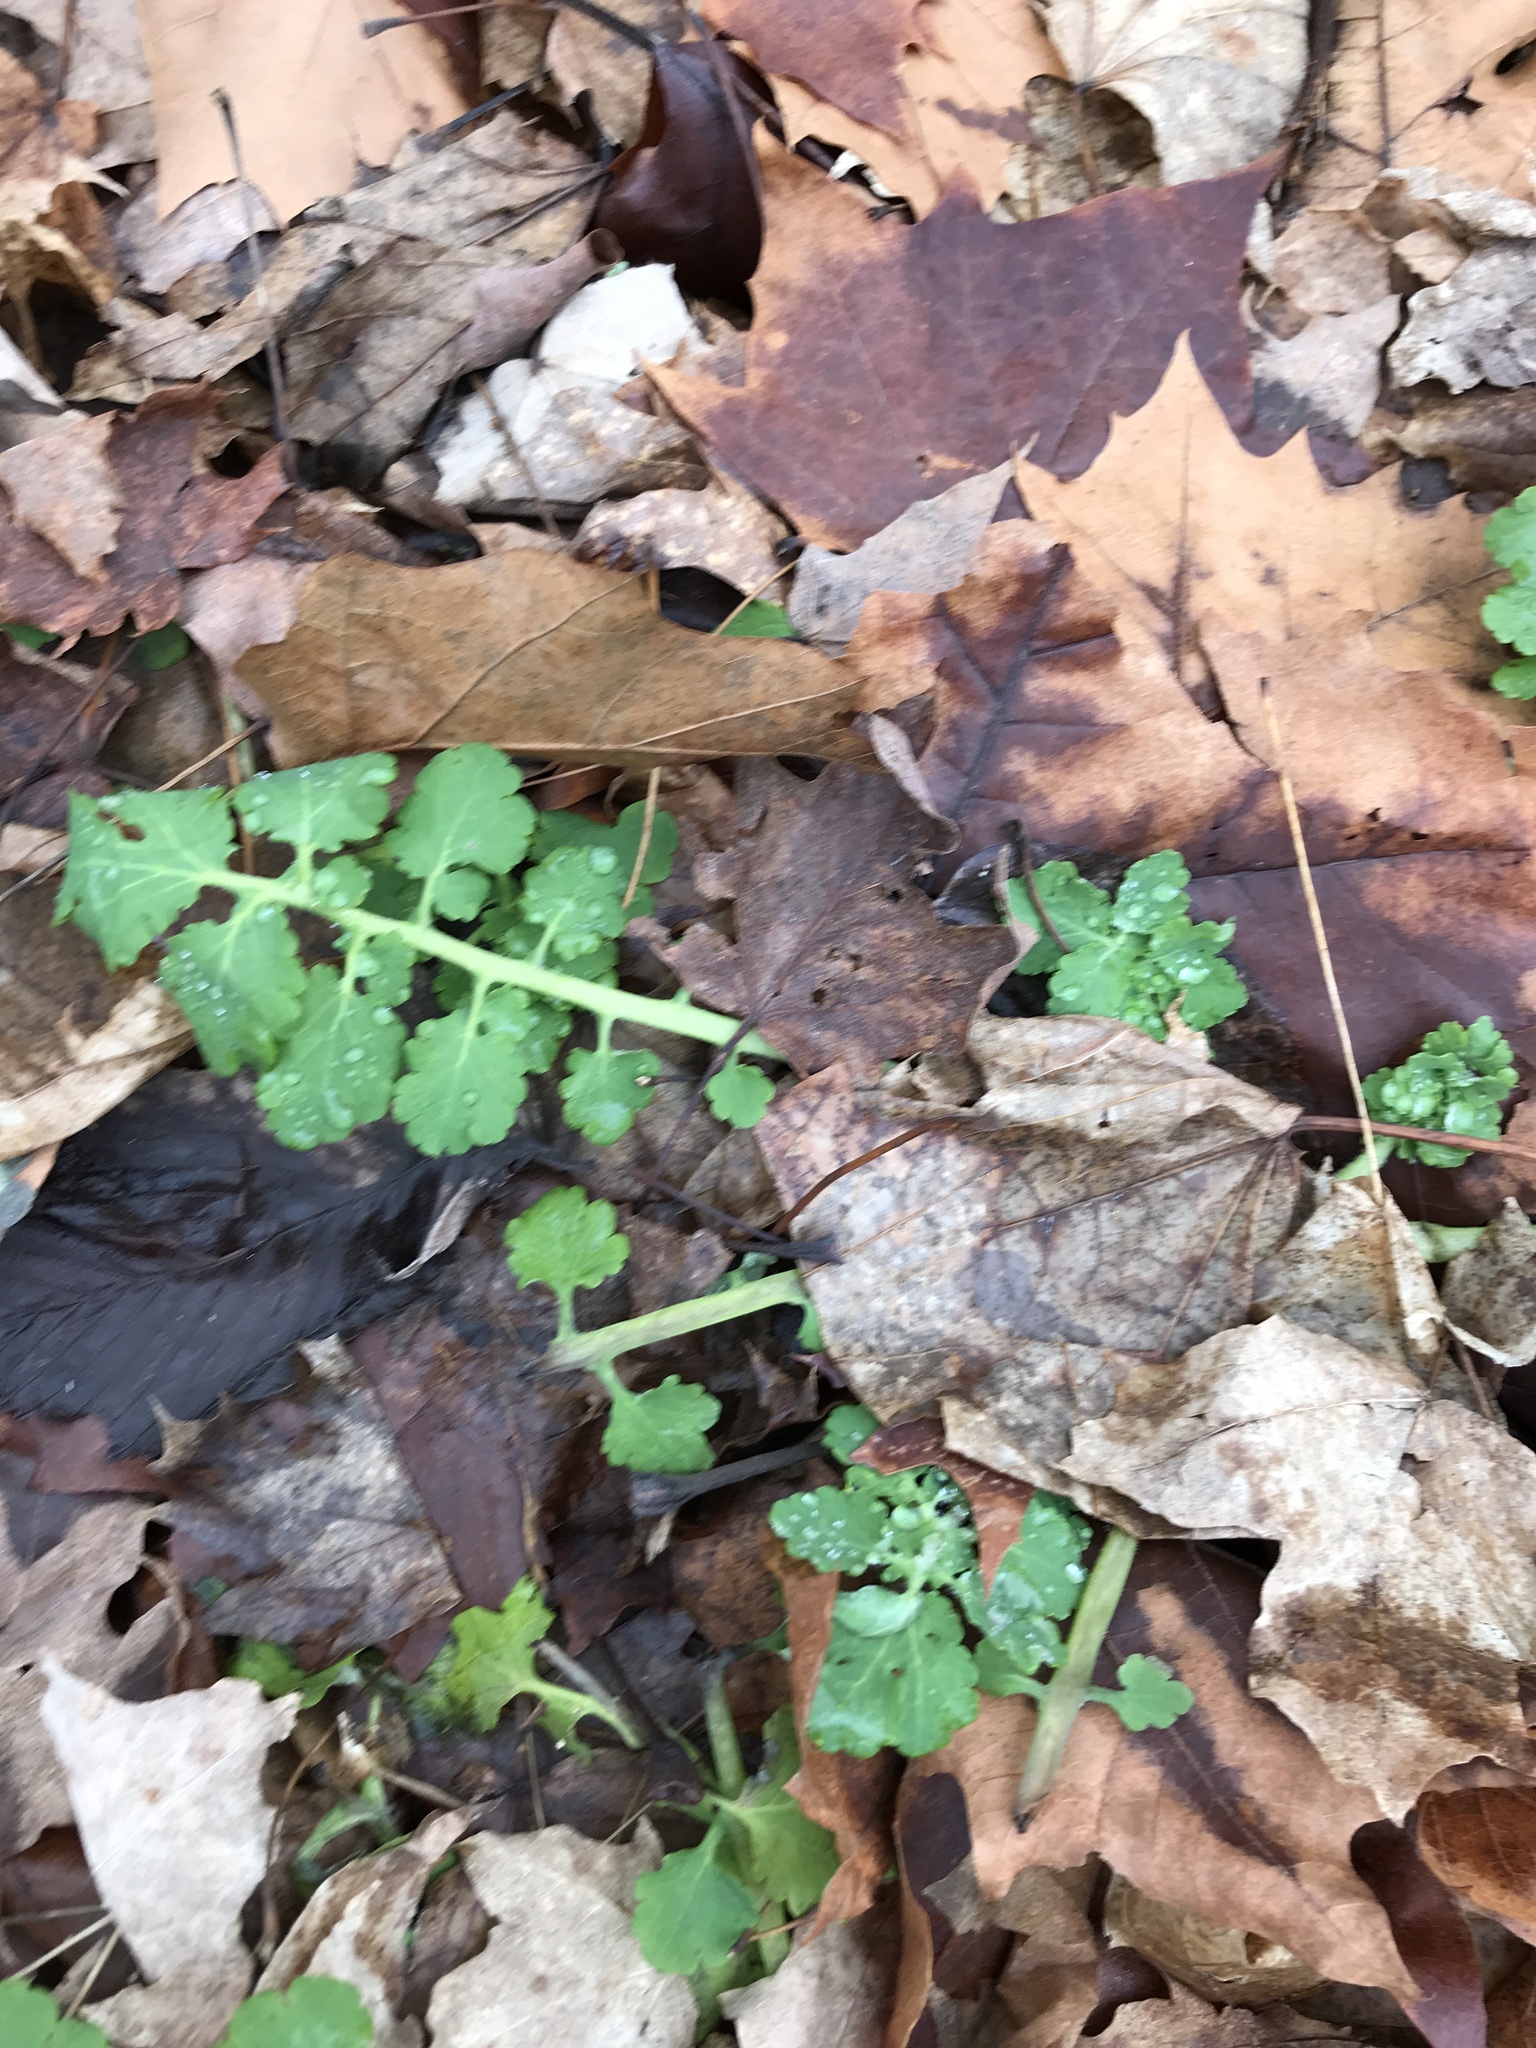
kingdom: Plantae
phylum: Tracheophyta
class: Magnoliopsida
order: Ranunculales
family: Papaveraceae
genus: Chelidonium
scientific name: Chelidonium majus
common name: Greater celandine
